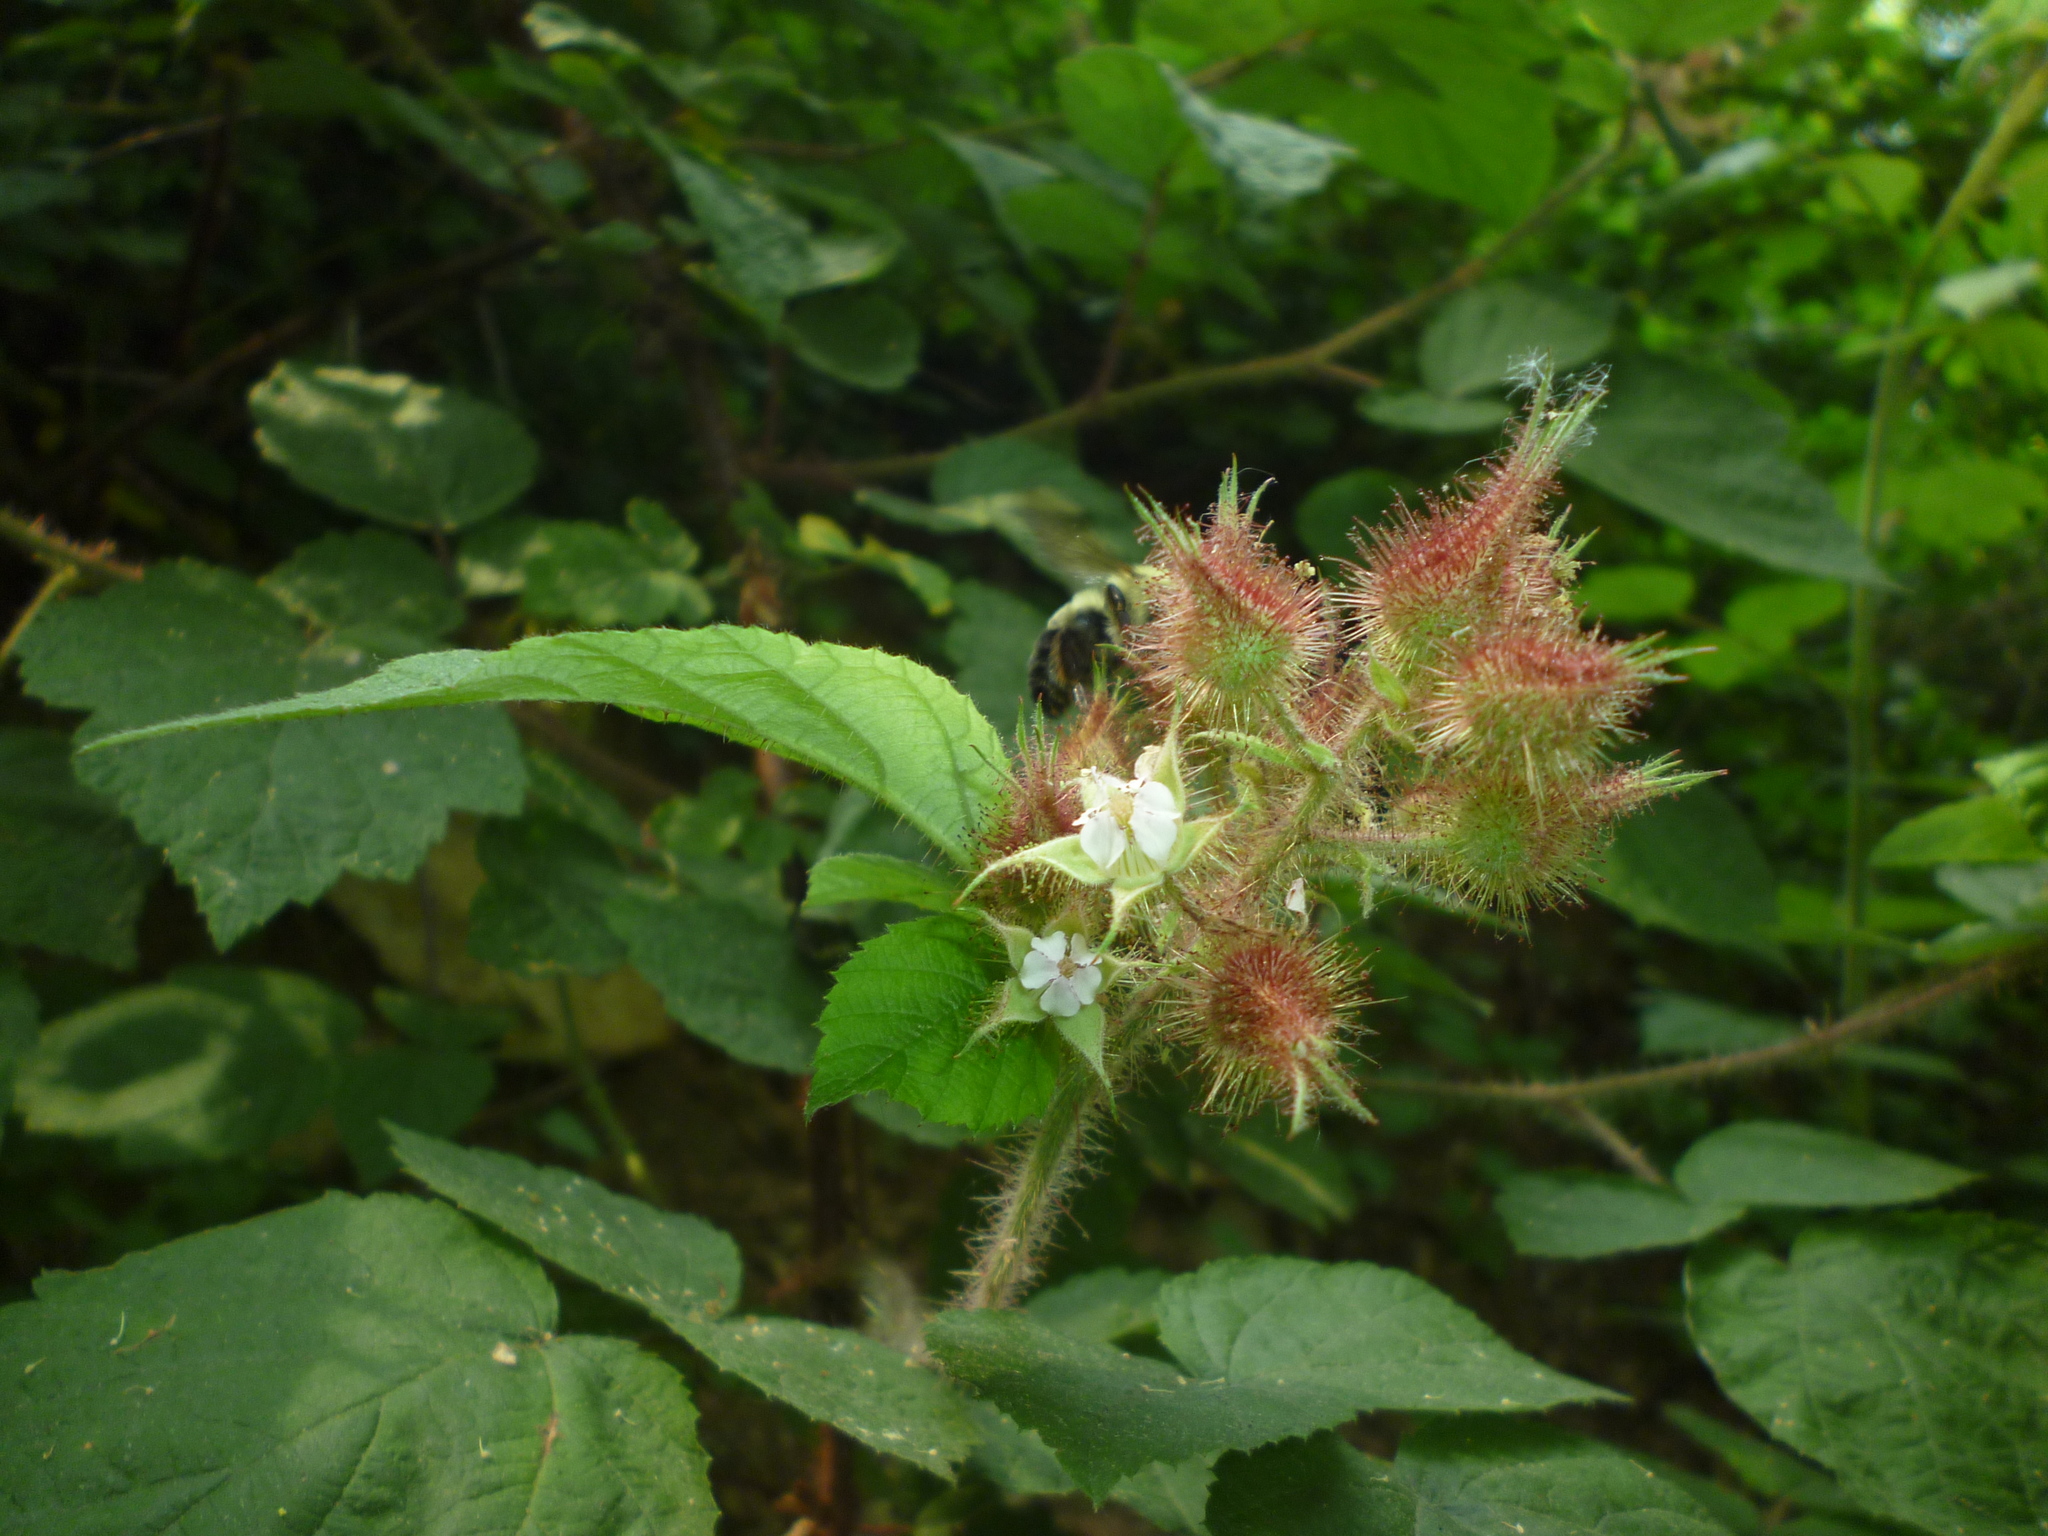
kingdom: Plantae
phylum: Tracheophyta
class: Magnoliopsida
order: Rosales
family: Rosaceae
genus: Rubus
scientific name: Rubus phoenicolasius
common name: Japanese wineberry
